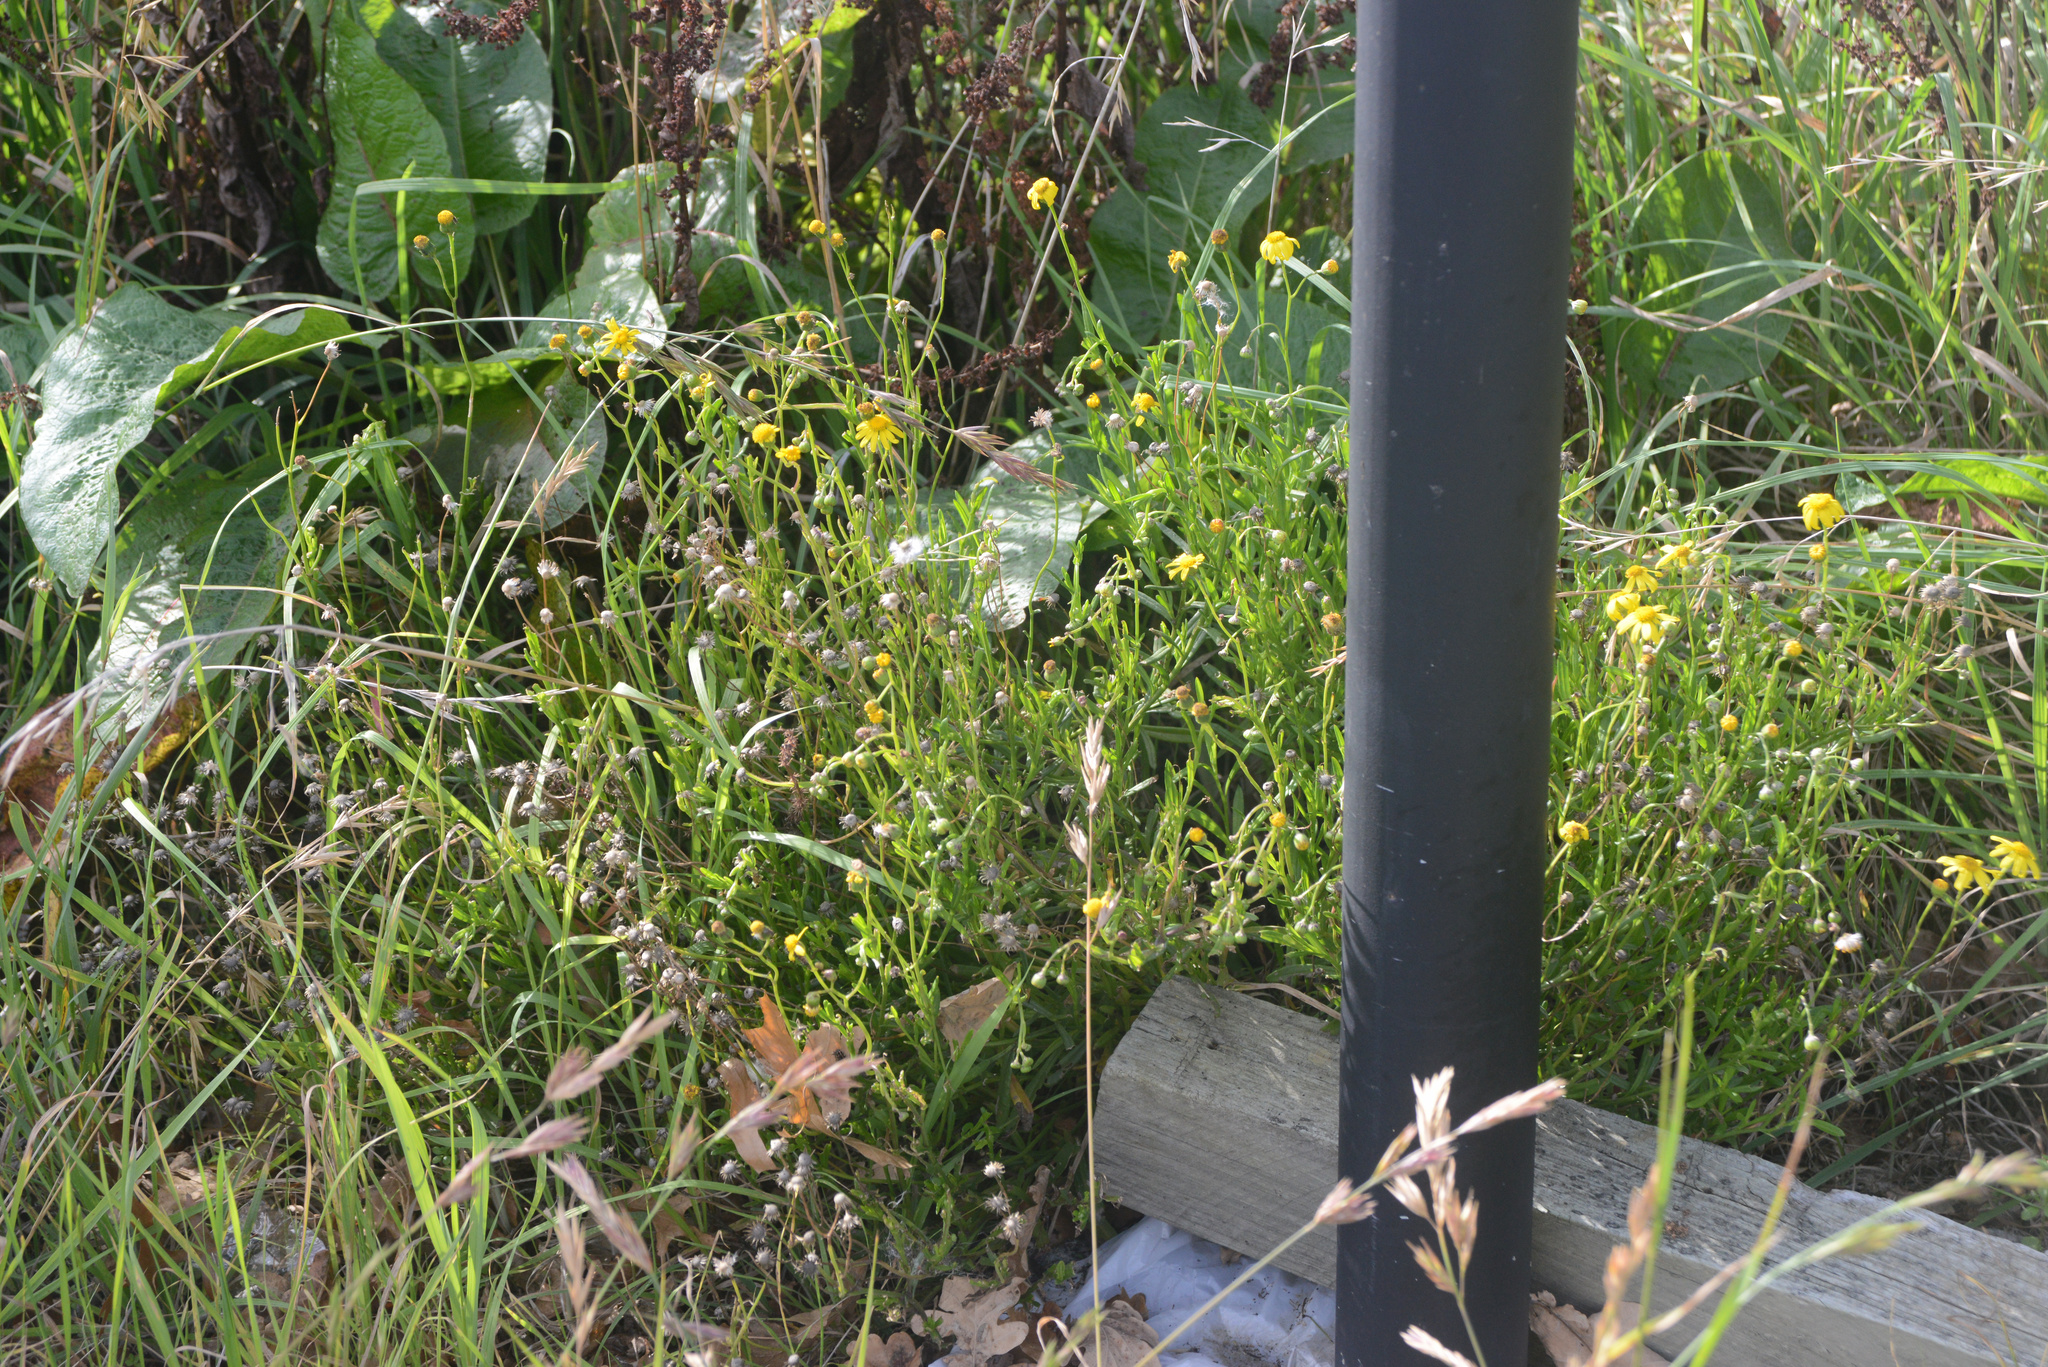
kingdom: Plantae
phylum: Tracheophyta
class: Magnoliopsida
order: Asterales
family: Asteraceae
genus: Senecio
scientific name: Senecio skirrhodon
